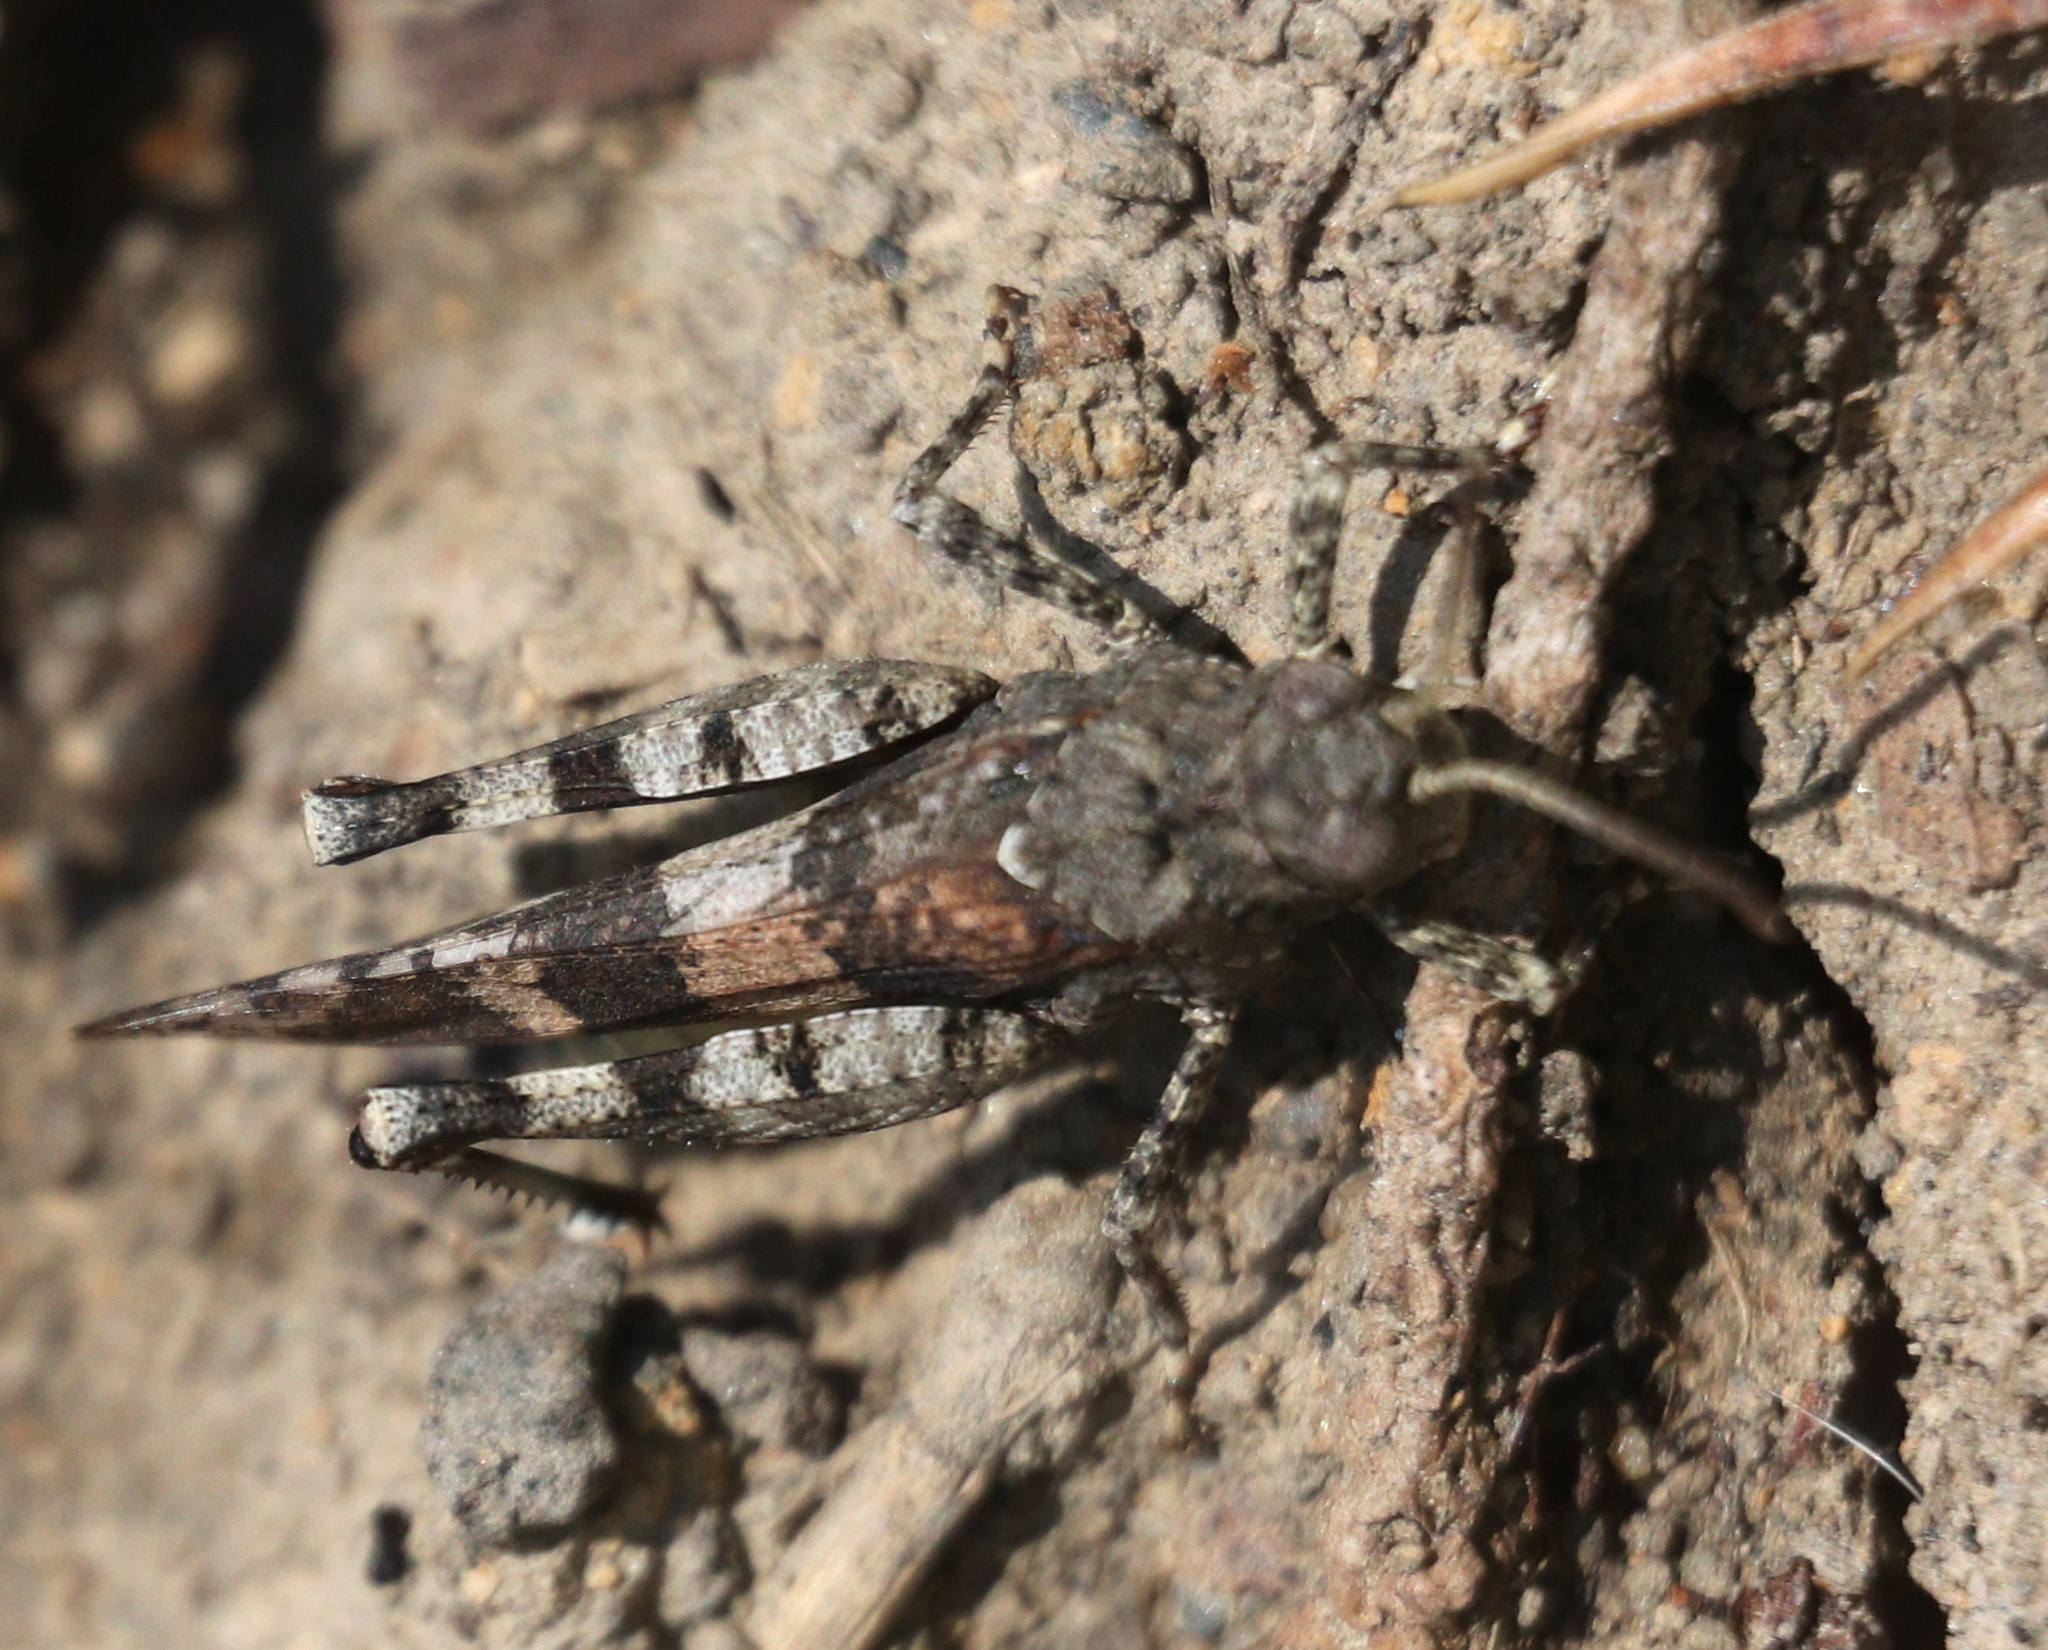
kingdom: Animalia
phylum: Arthropoda
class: Insecta
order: Orthoptera
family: Acrididae
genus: Oedipoda
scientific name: Oedipoda caerulescens
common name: Blue-winged grasshopper
